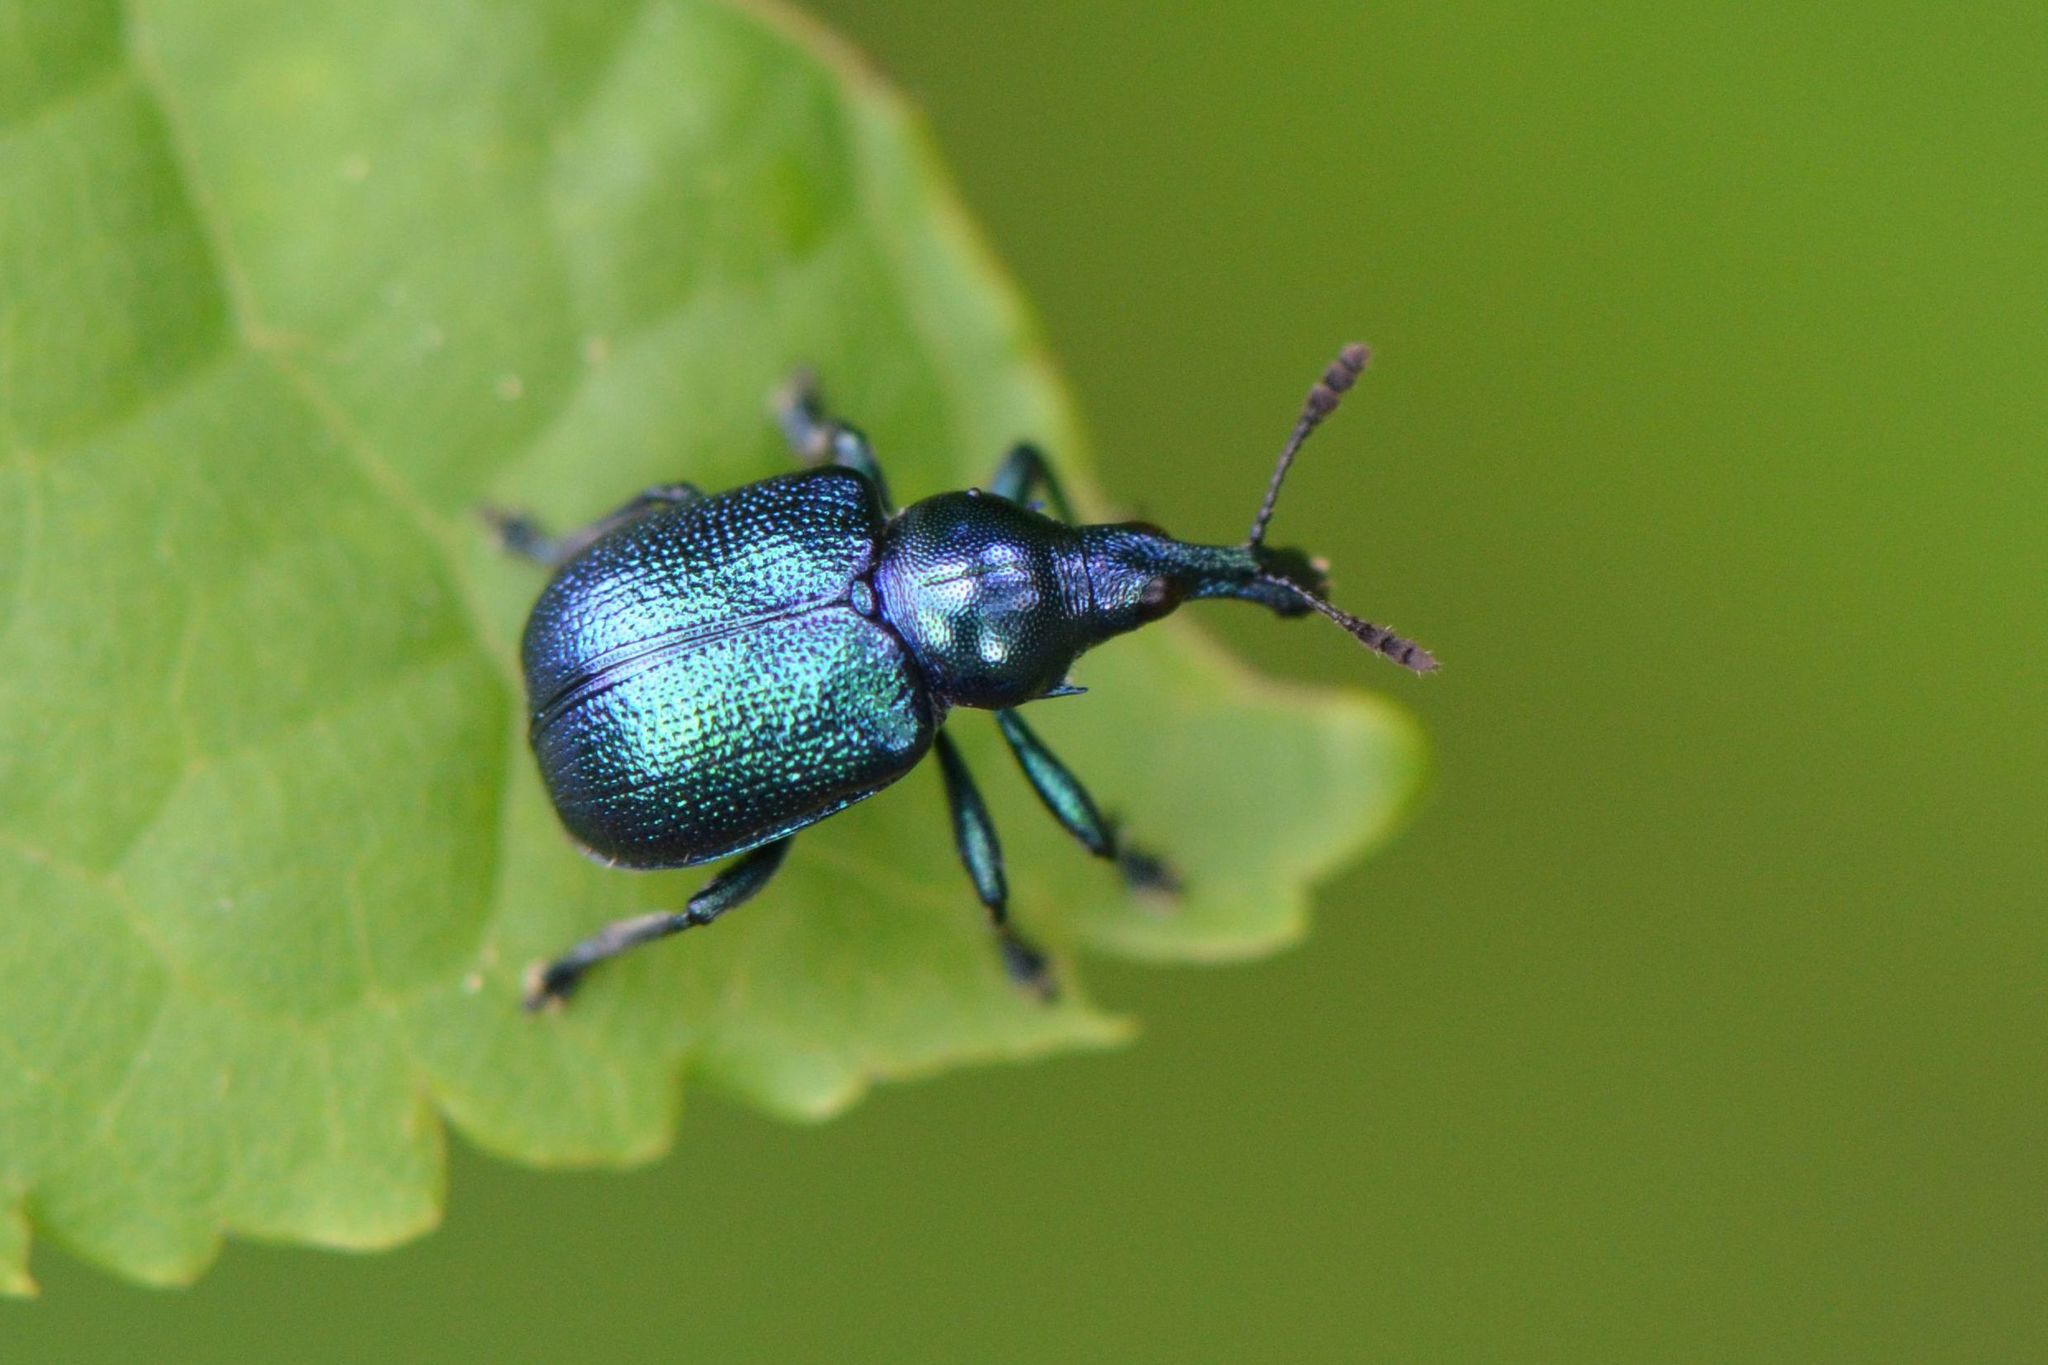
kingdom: Animalia
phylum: Arthropoda
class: Insecta
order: Coleoptera
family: Attelabidae
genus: Byctiscus
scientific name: Byctiscus betulae
